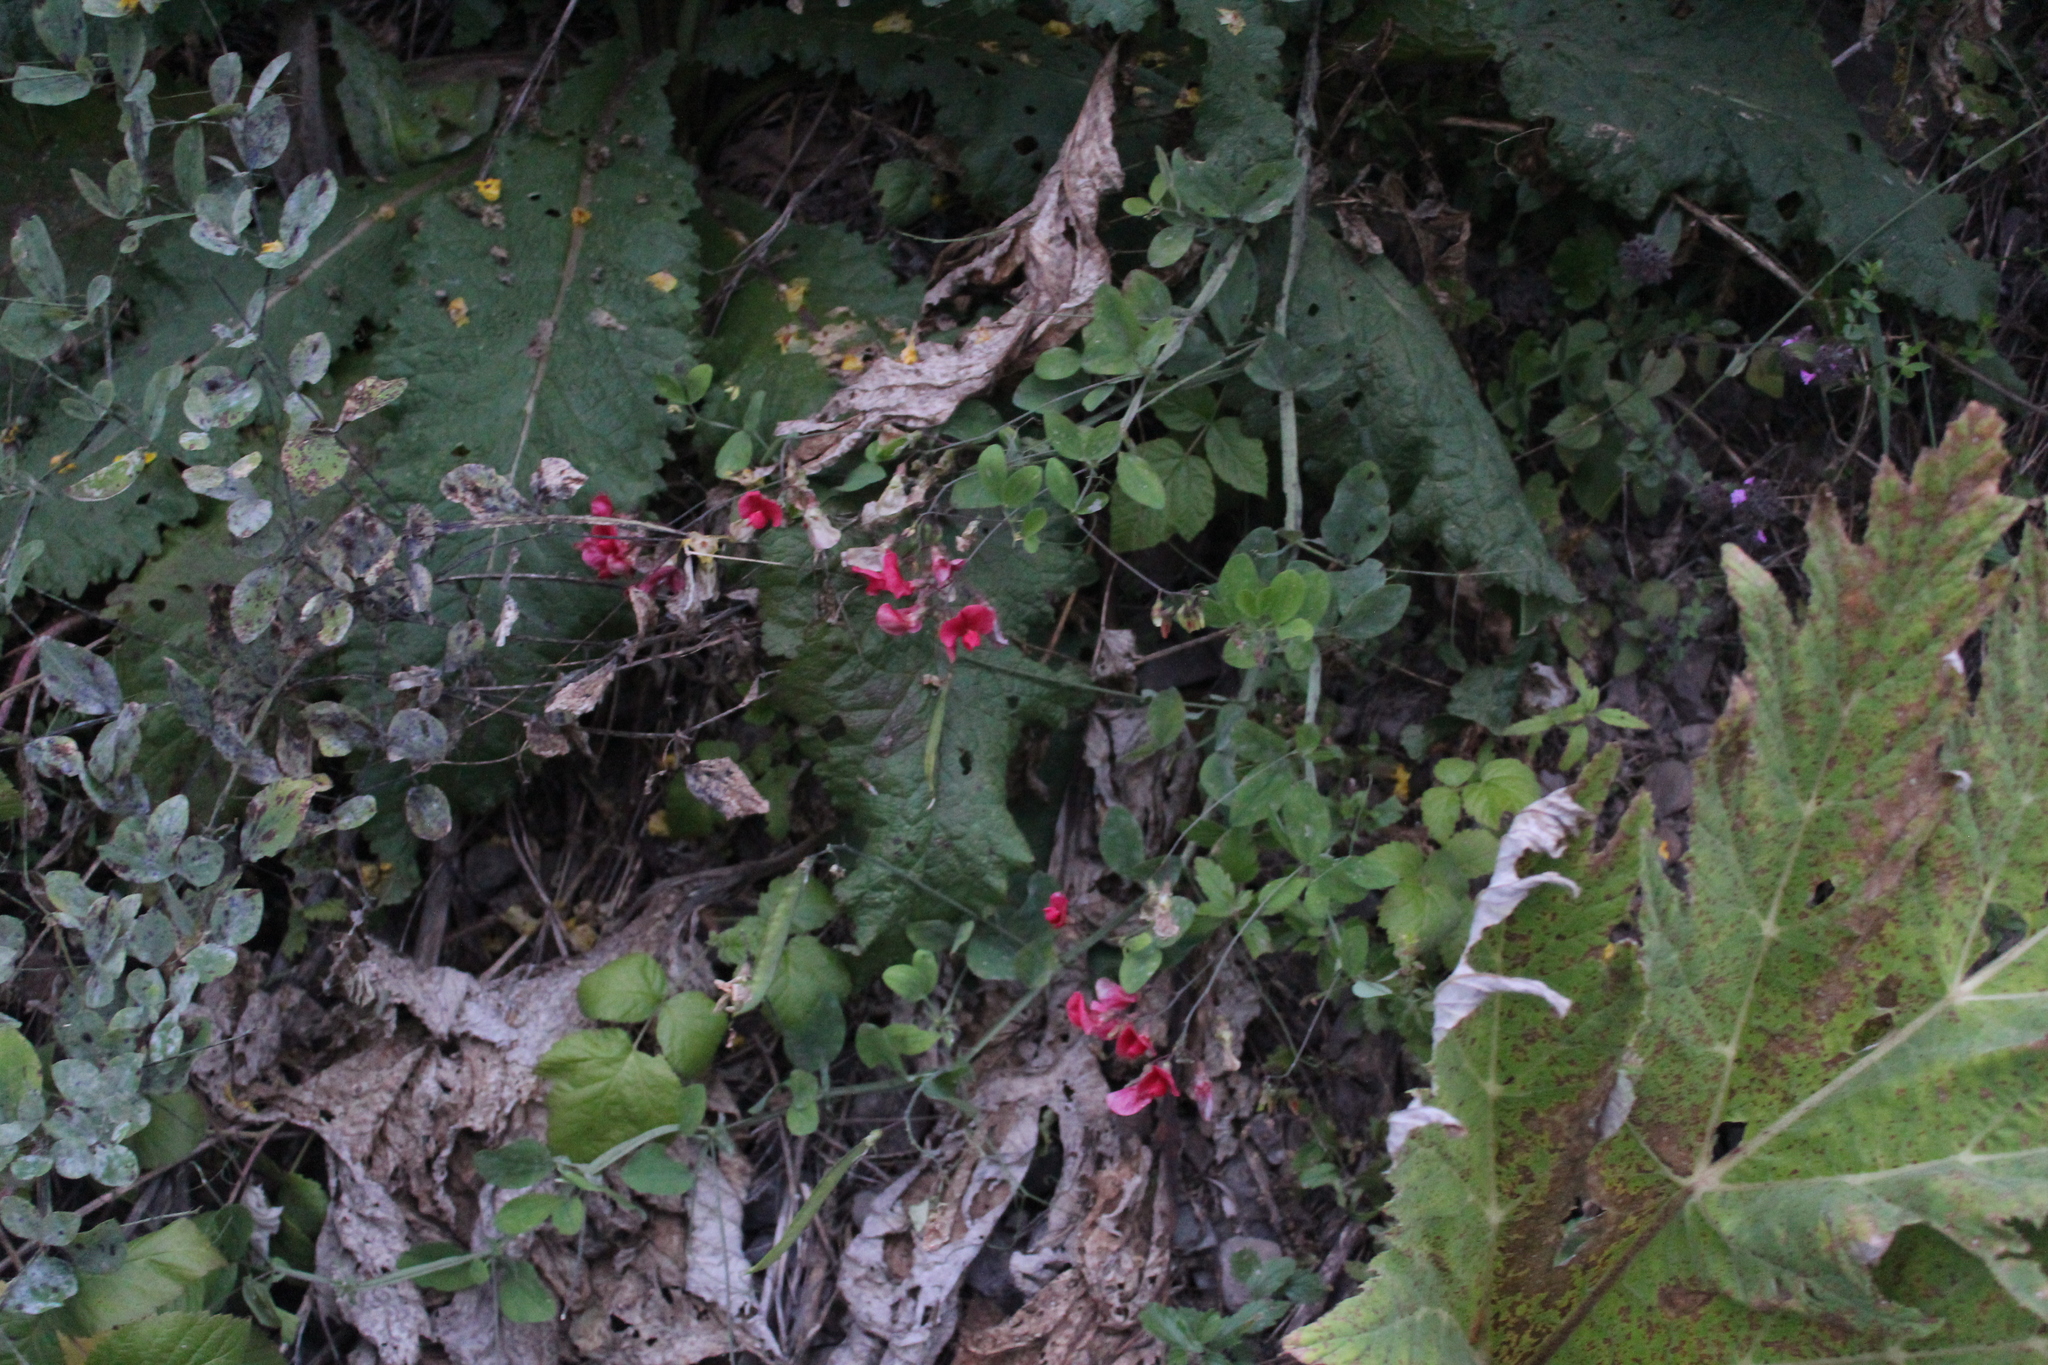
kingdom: Plantae
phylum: Tracheophyta
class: Magnoliopsida
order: Fabales
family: Fabaceae
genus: Lathyrus
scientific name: Lathyrus miniatus
